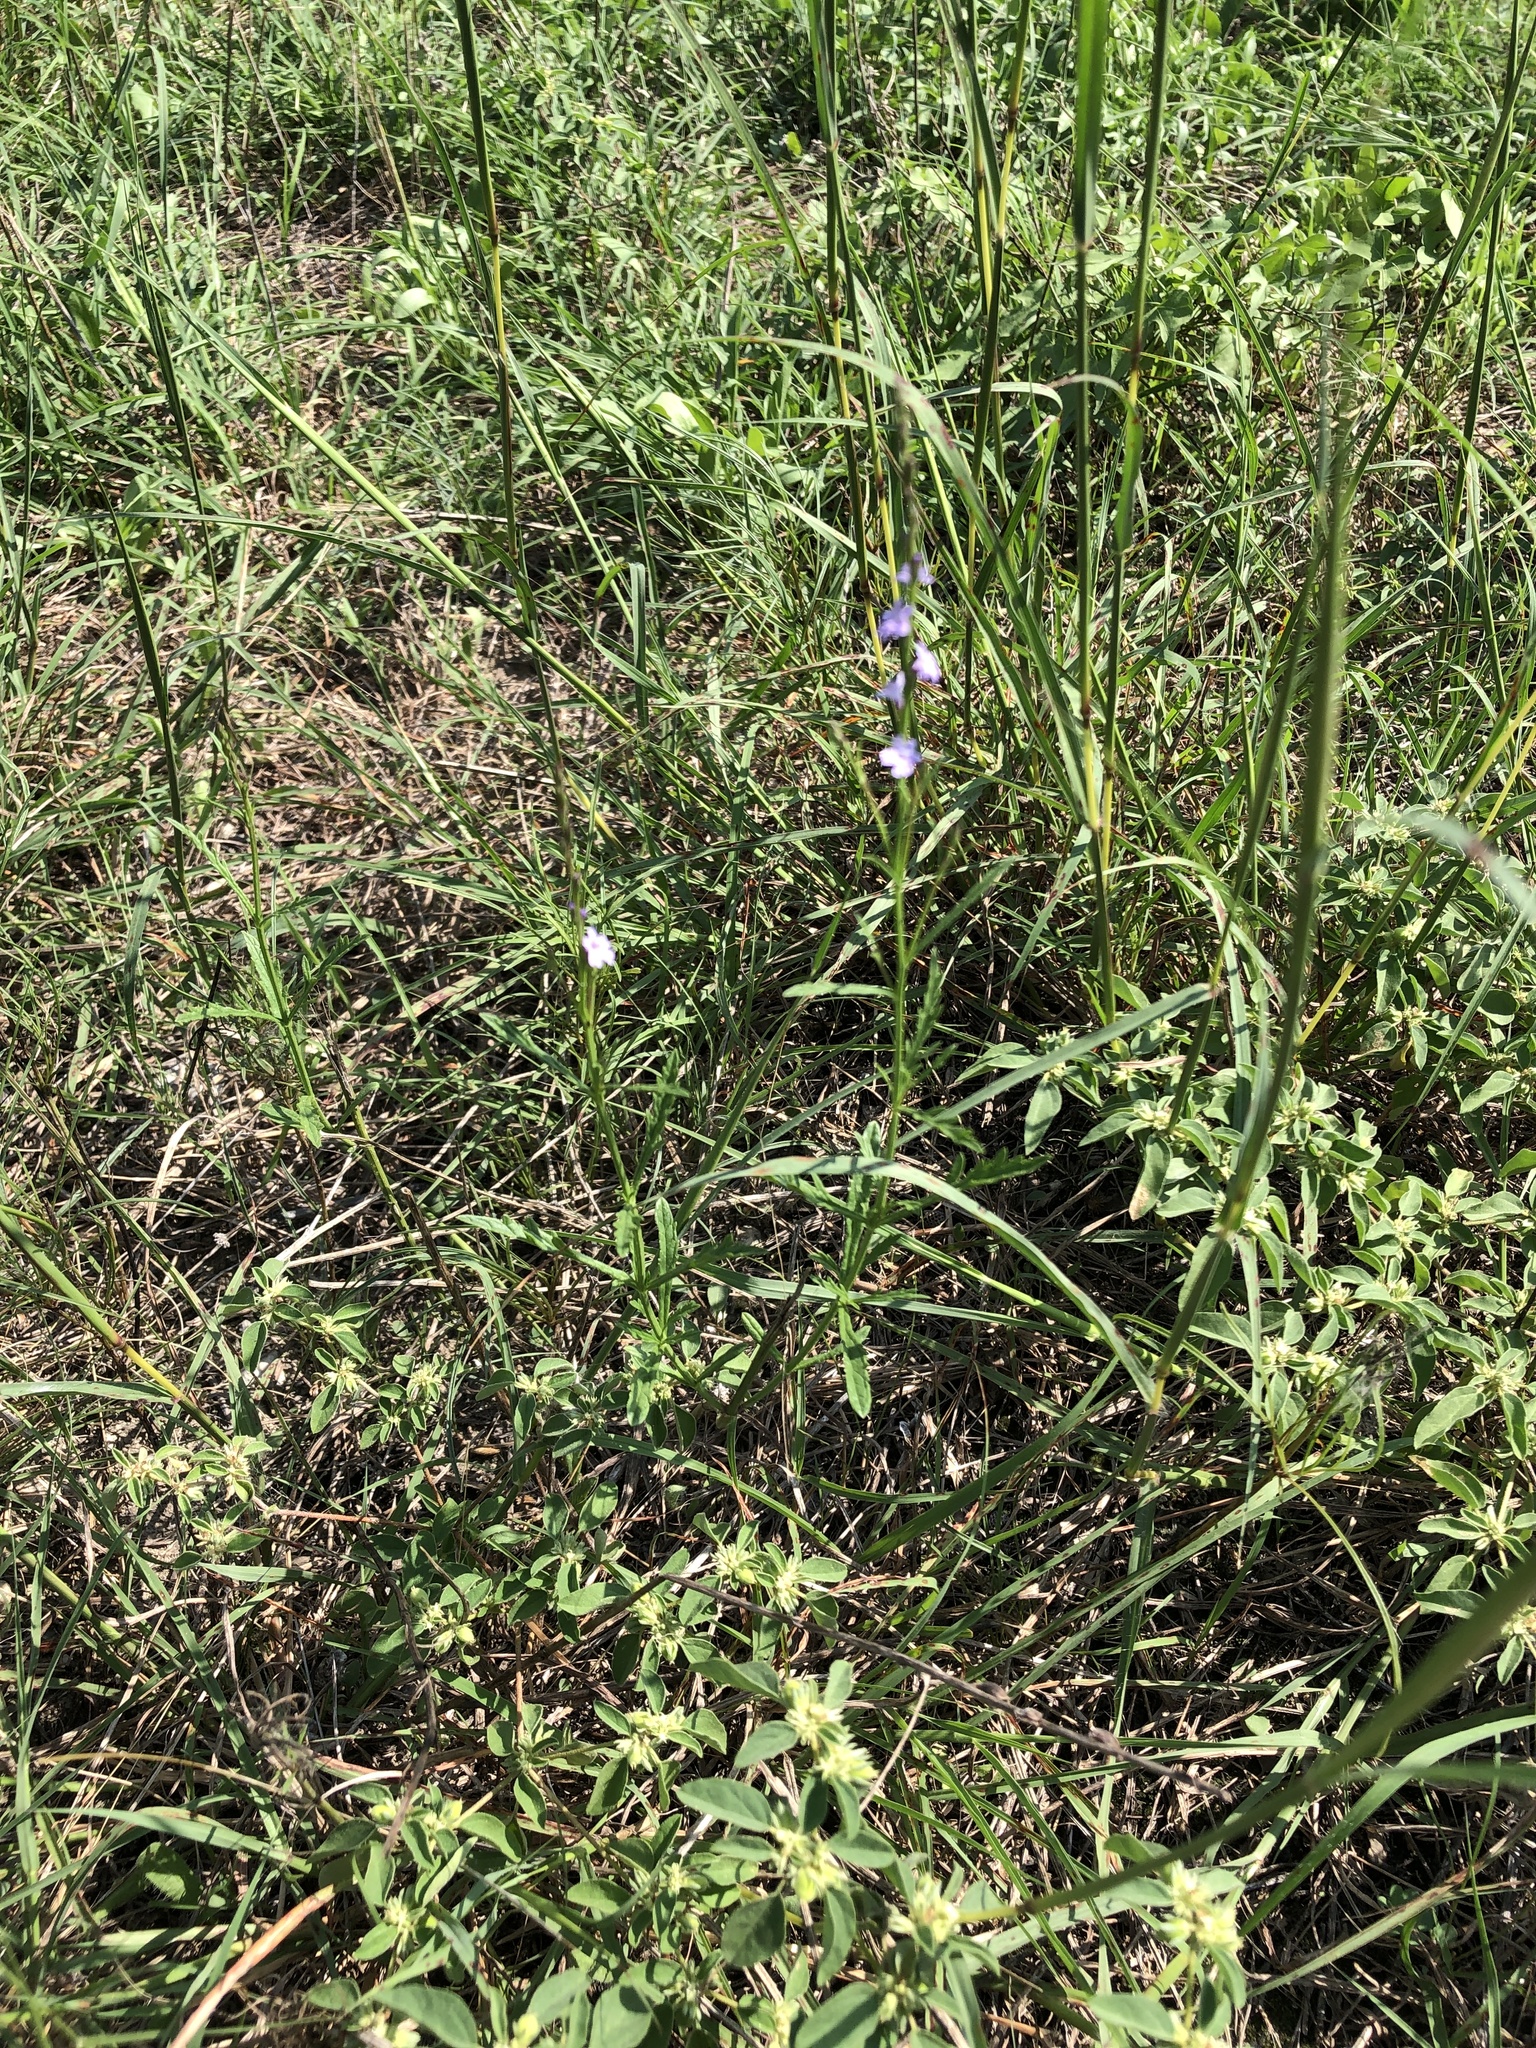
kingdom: Plantae
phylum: Tracheophyta
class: Magnoliopsida
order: Lamiales
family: Verbenaceae
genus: Verbena
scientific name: Verbena halei
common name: Texas vervain
